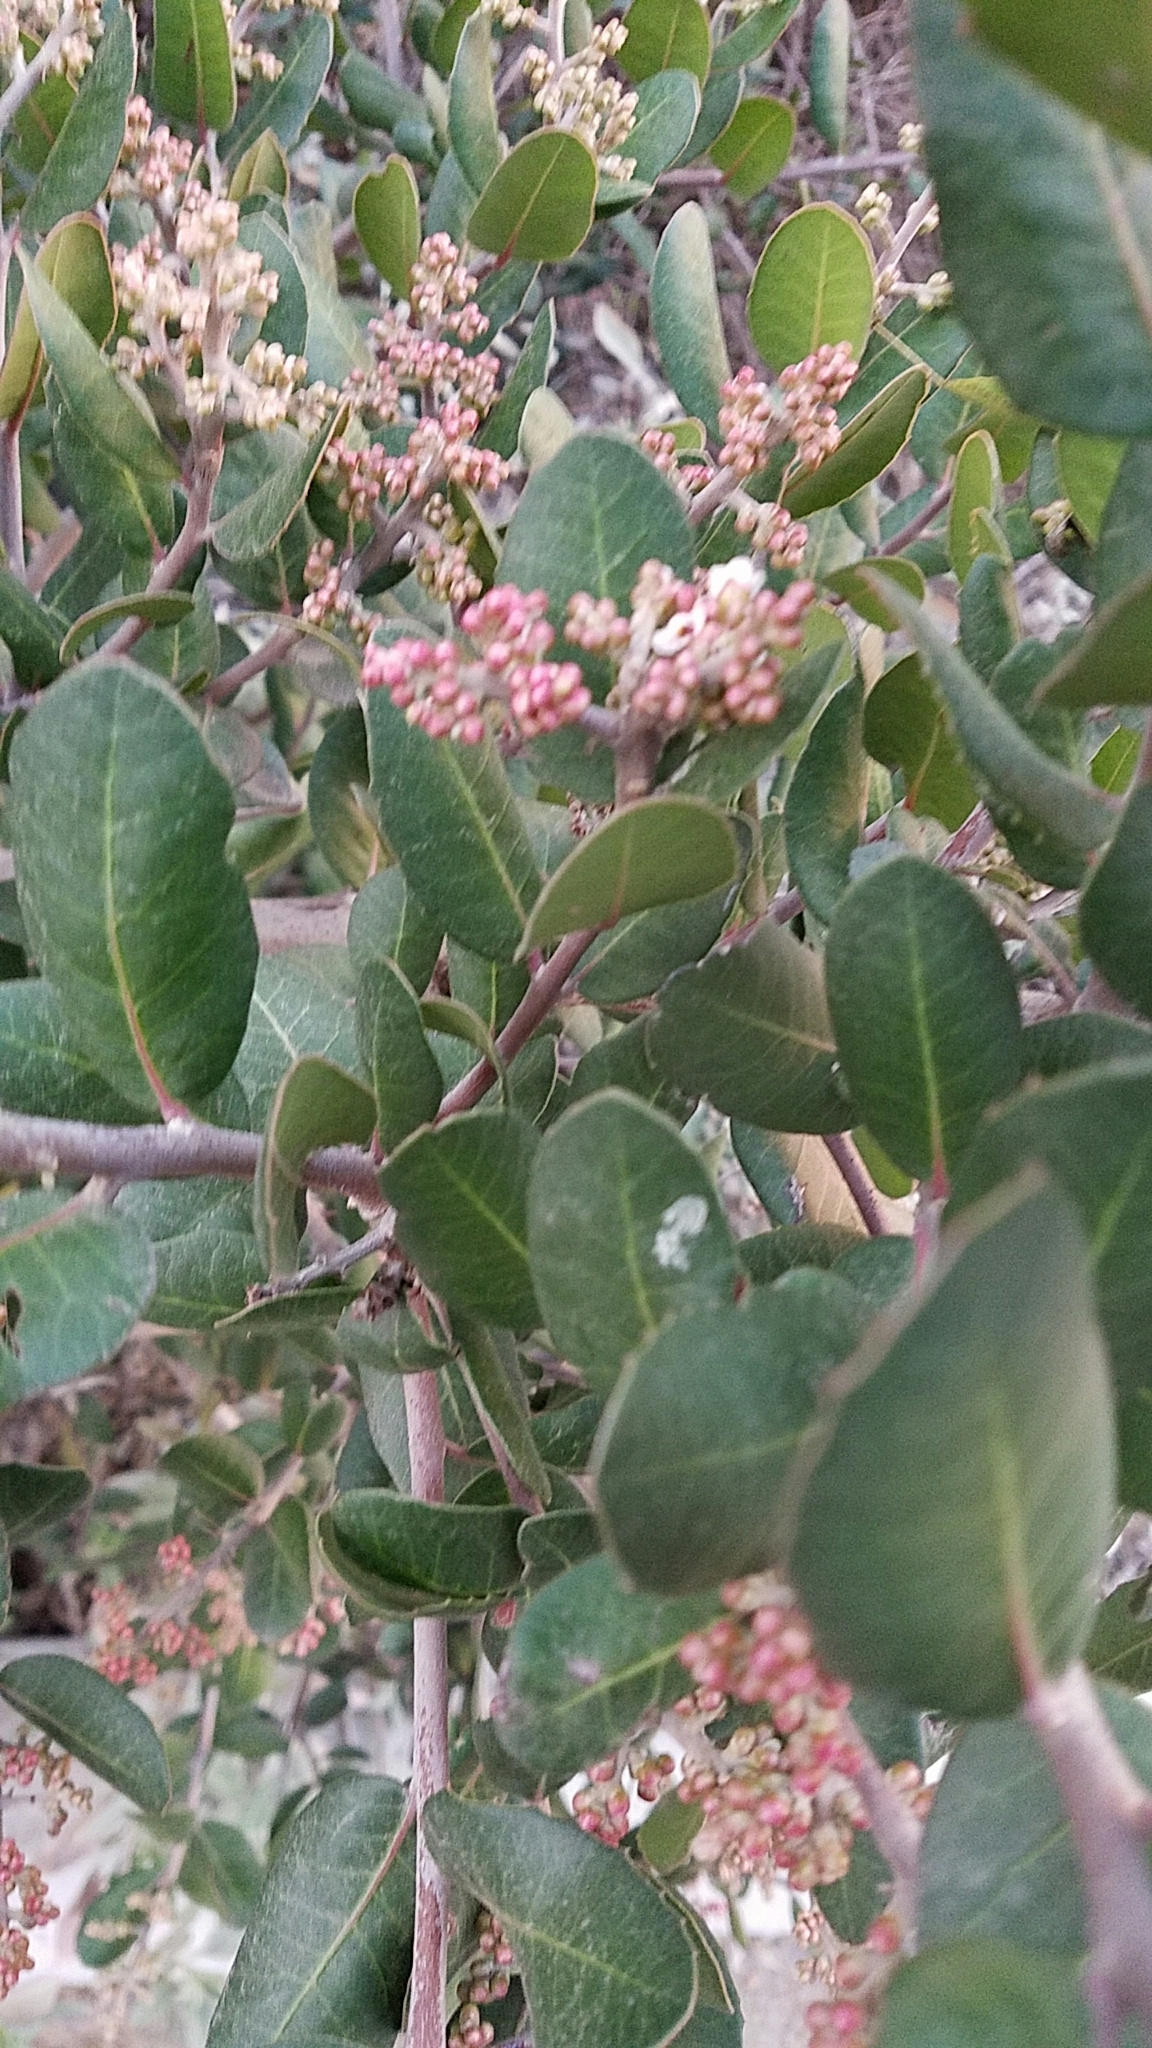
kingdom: Plantae
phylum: Tracheophyta
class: Magnoliopsida
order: Sapindales
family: Anacardiaceae
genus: Rhus
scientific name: Rhus integrifolia
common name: Lemonade sumac
